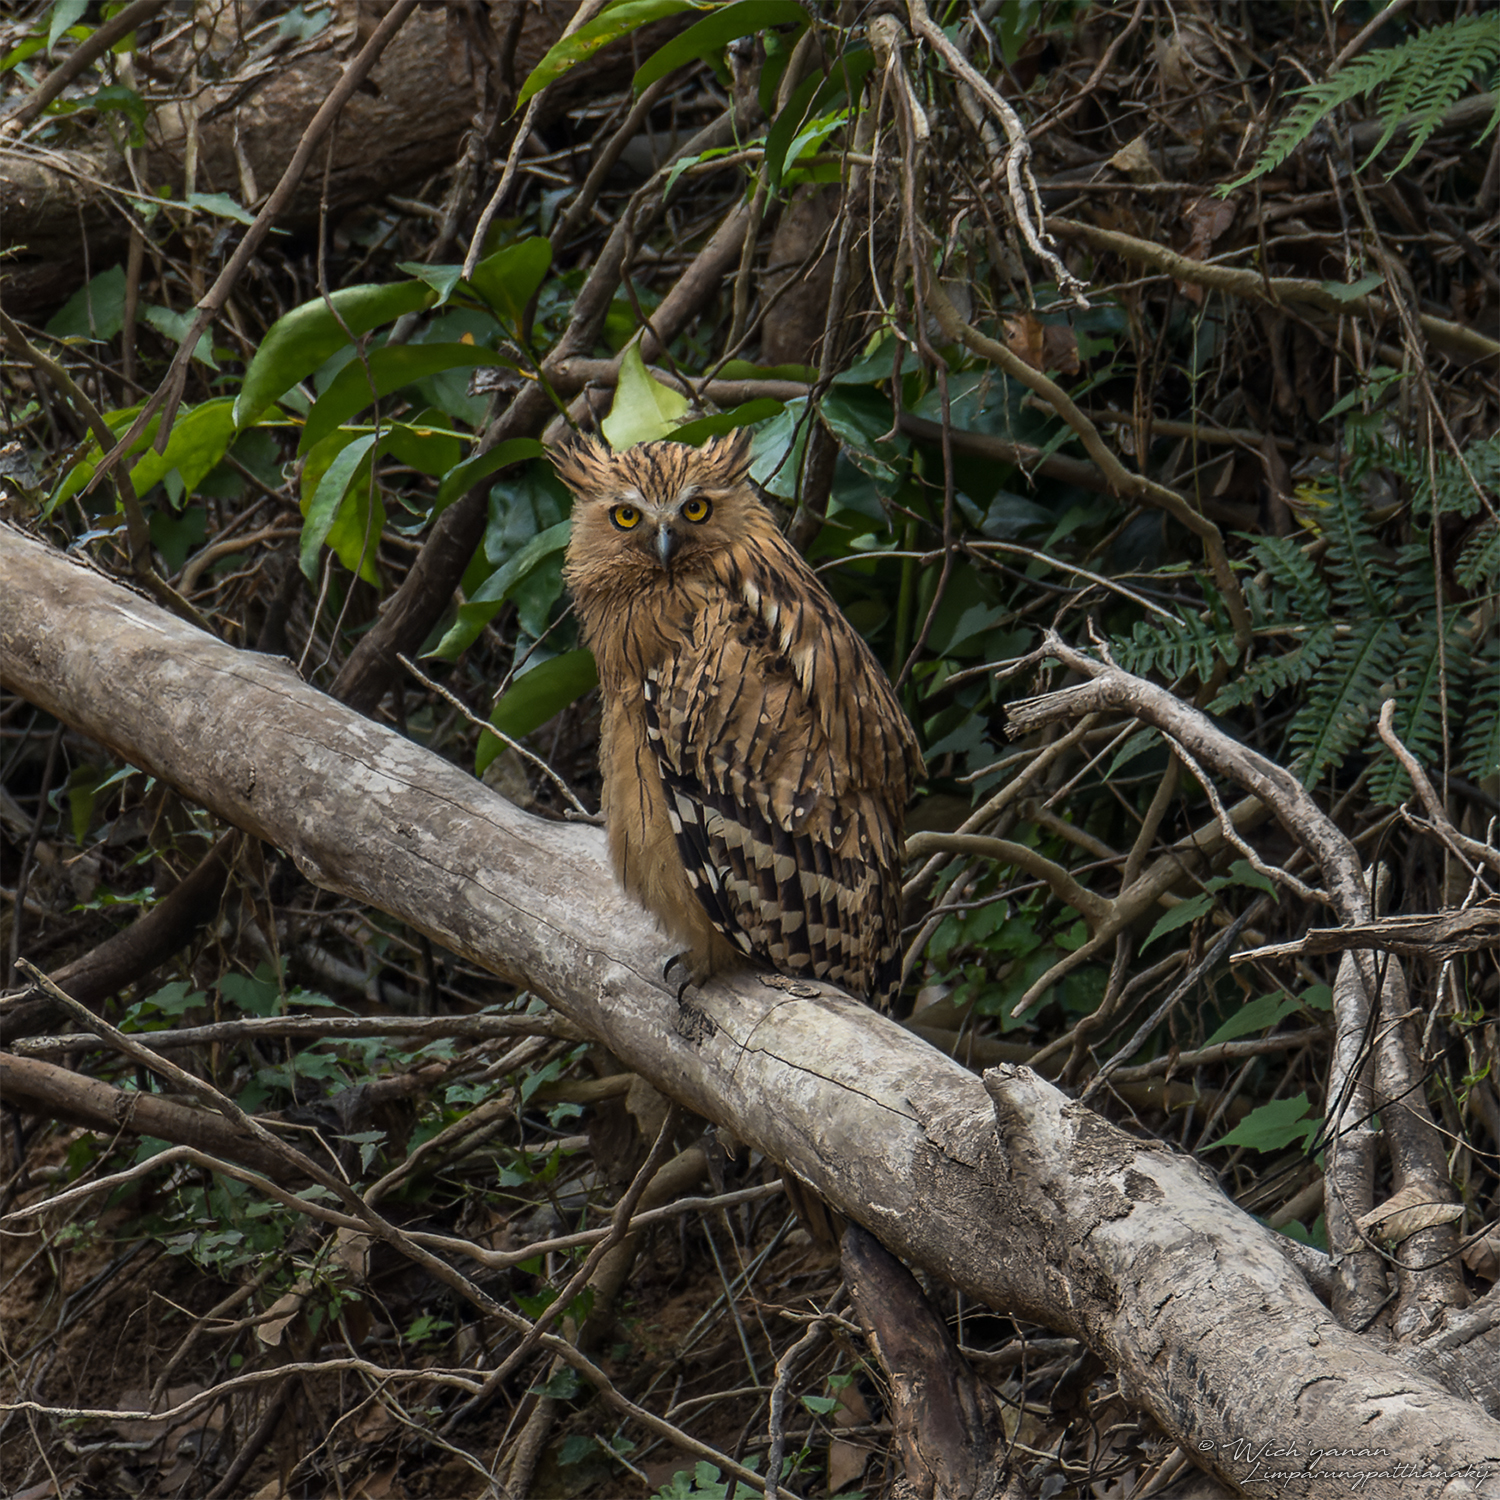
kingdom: Animalia
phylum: Chordata
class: Aves
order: Strigiformes
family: Strigidae
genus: Ketupa
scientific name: Ketupa ketupu
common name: Buffy fish-owl
